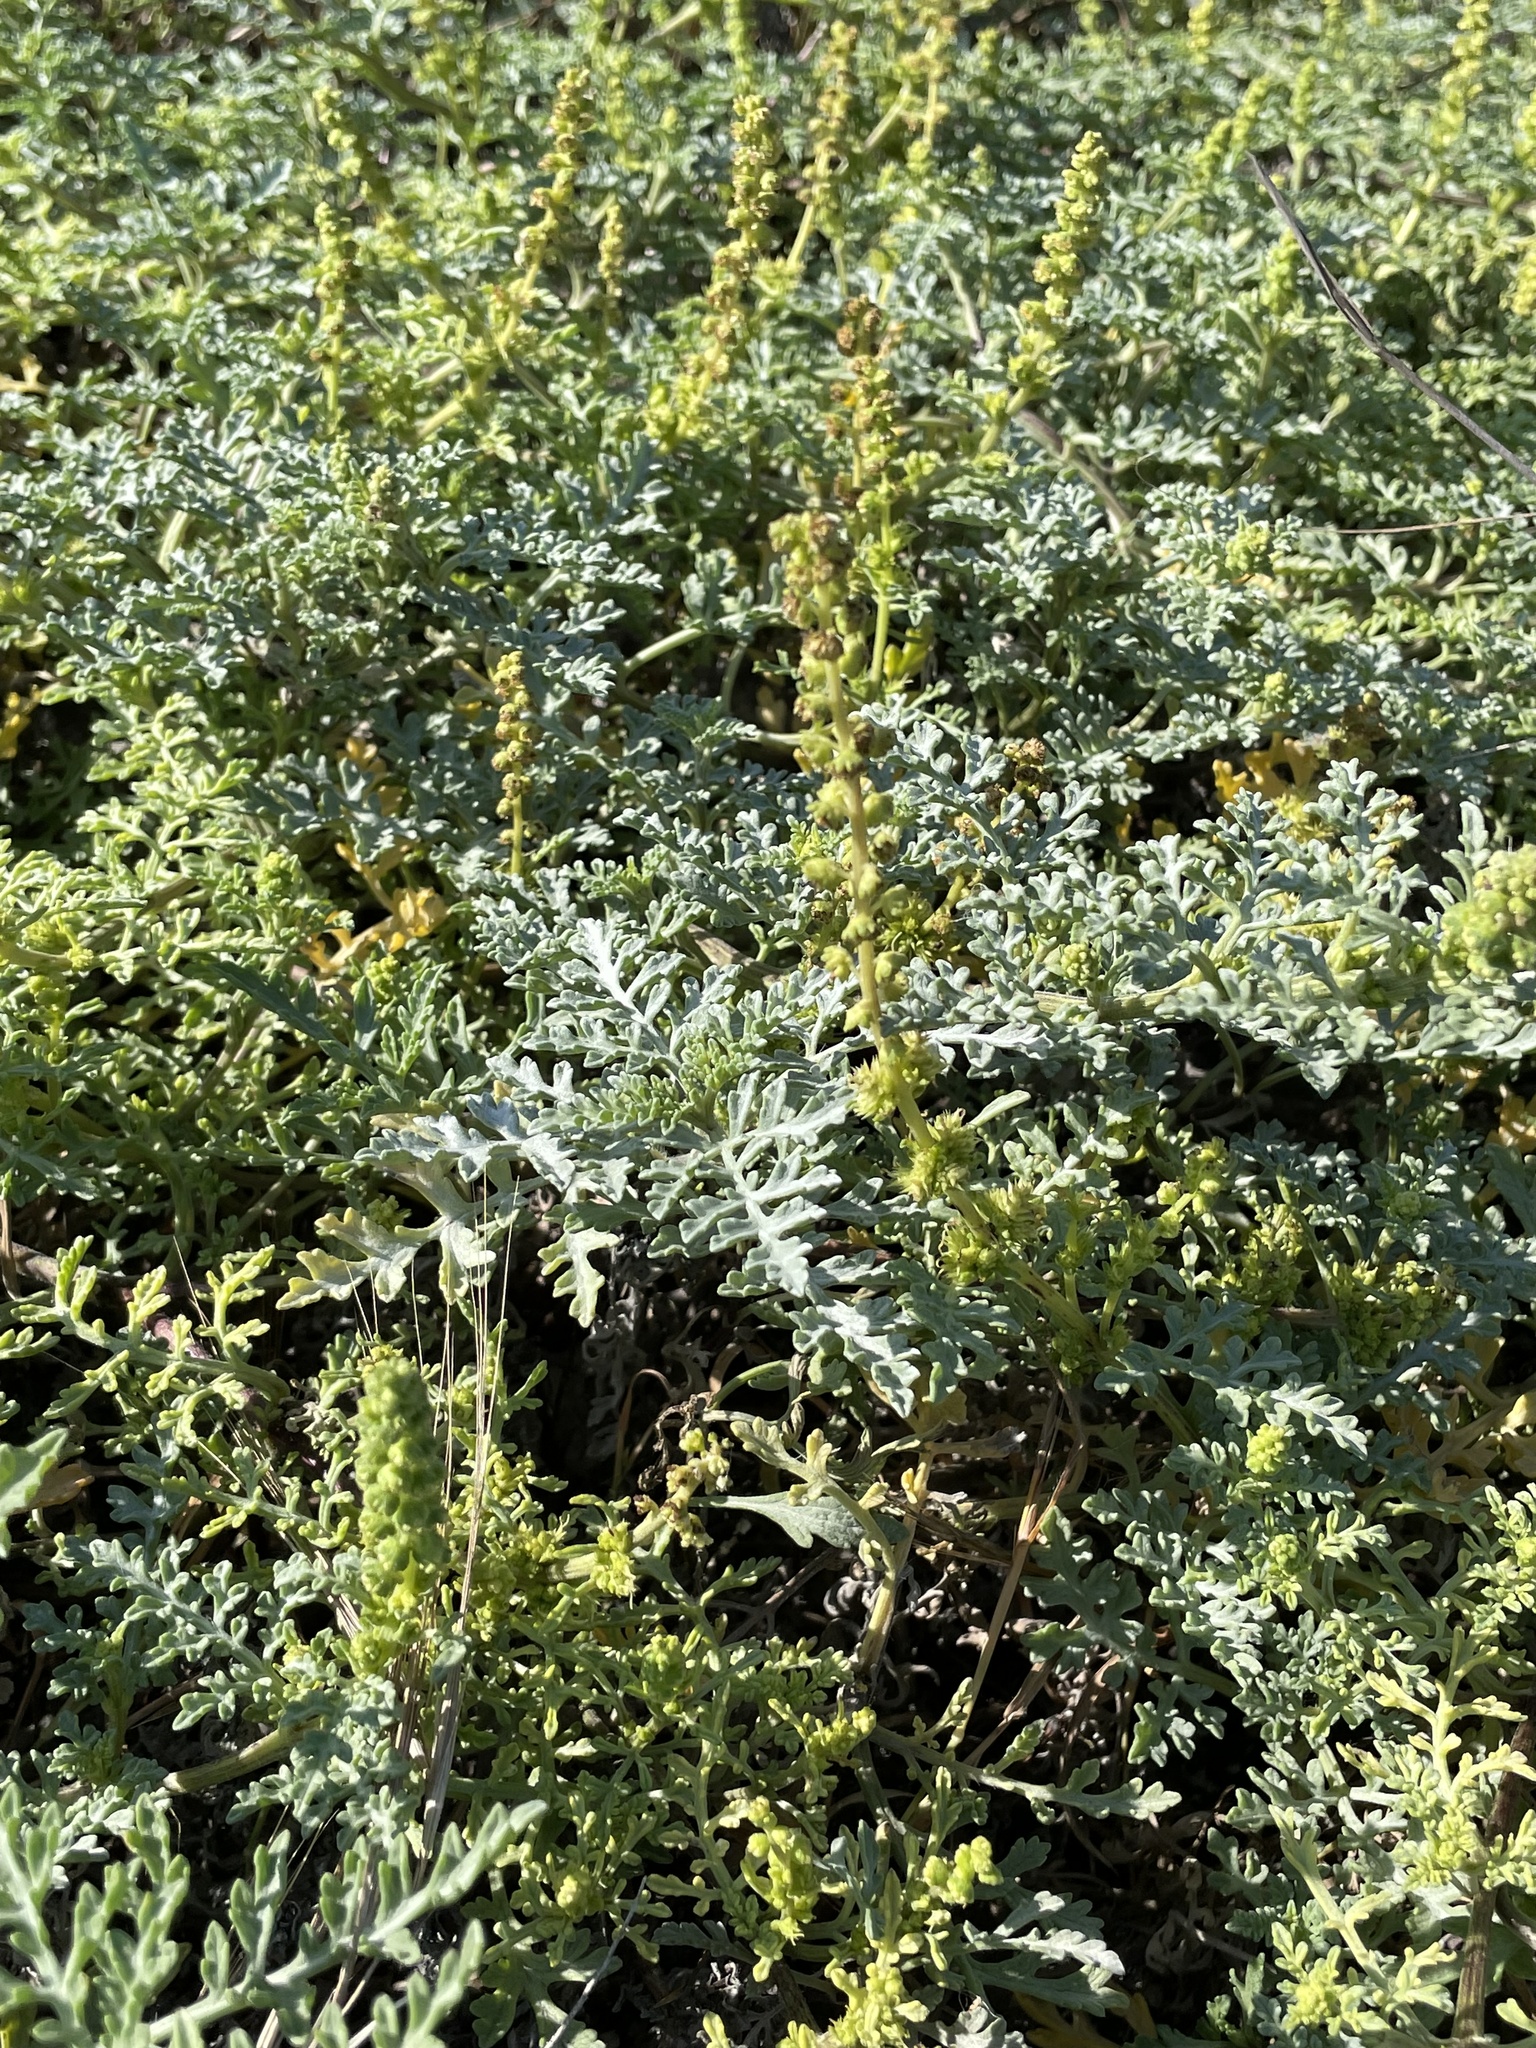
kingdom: Plantae
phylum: Tracheophyta
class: Magnoliopsida
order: Asterales
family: Asteraceae
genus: Ambrosia
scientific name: Ambrosia chamissonis
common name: Beachbur
